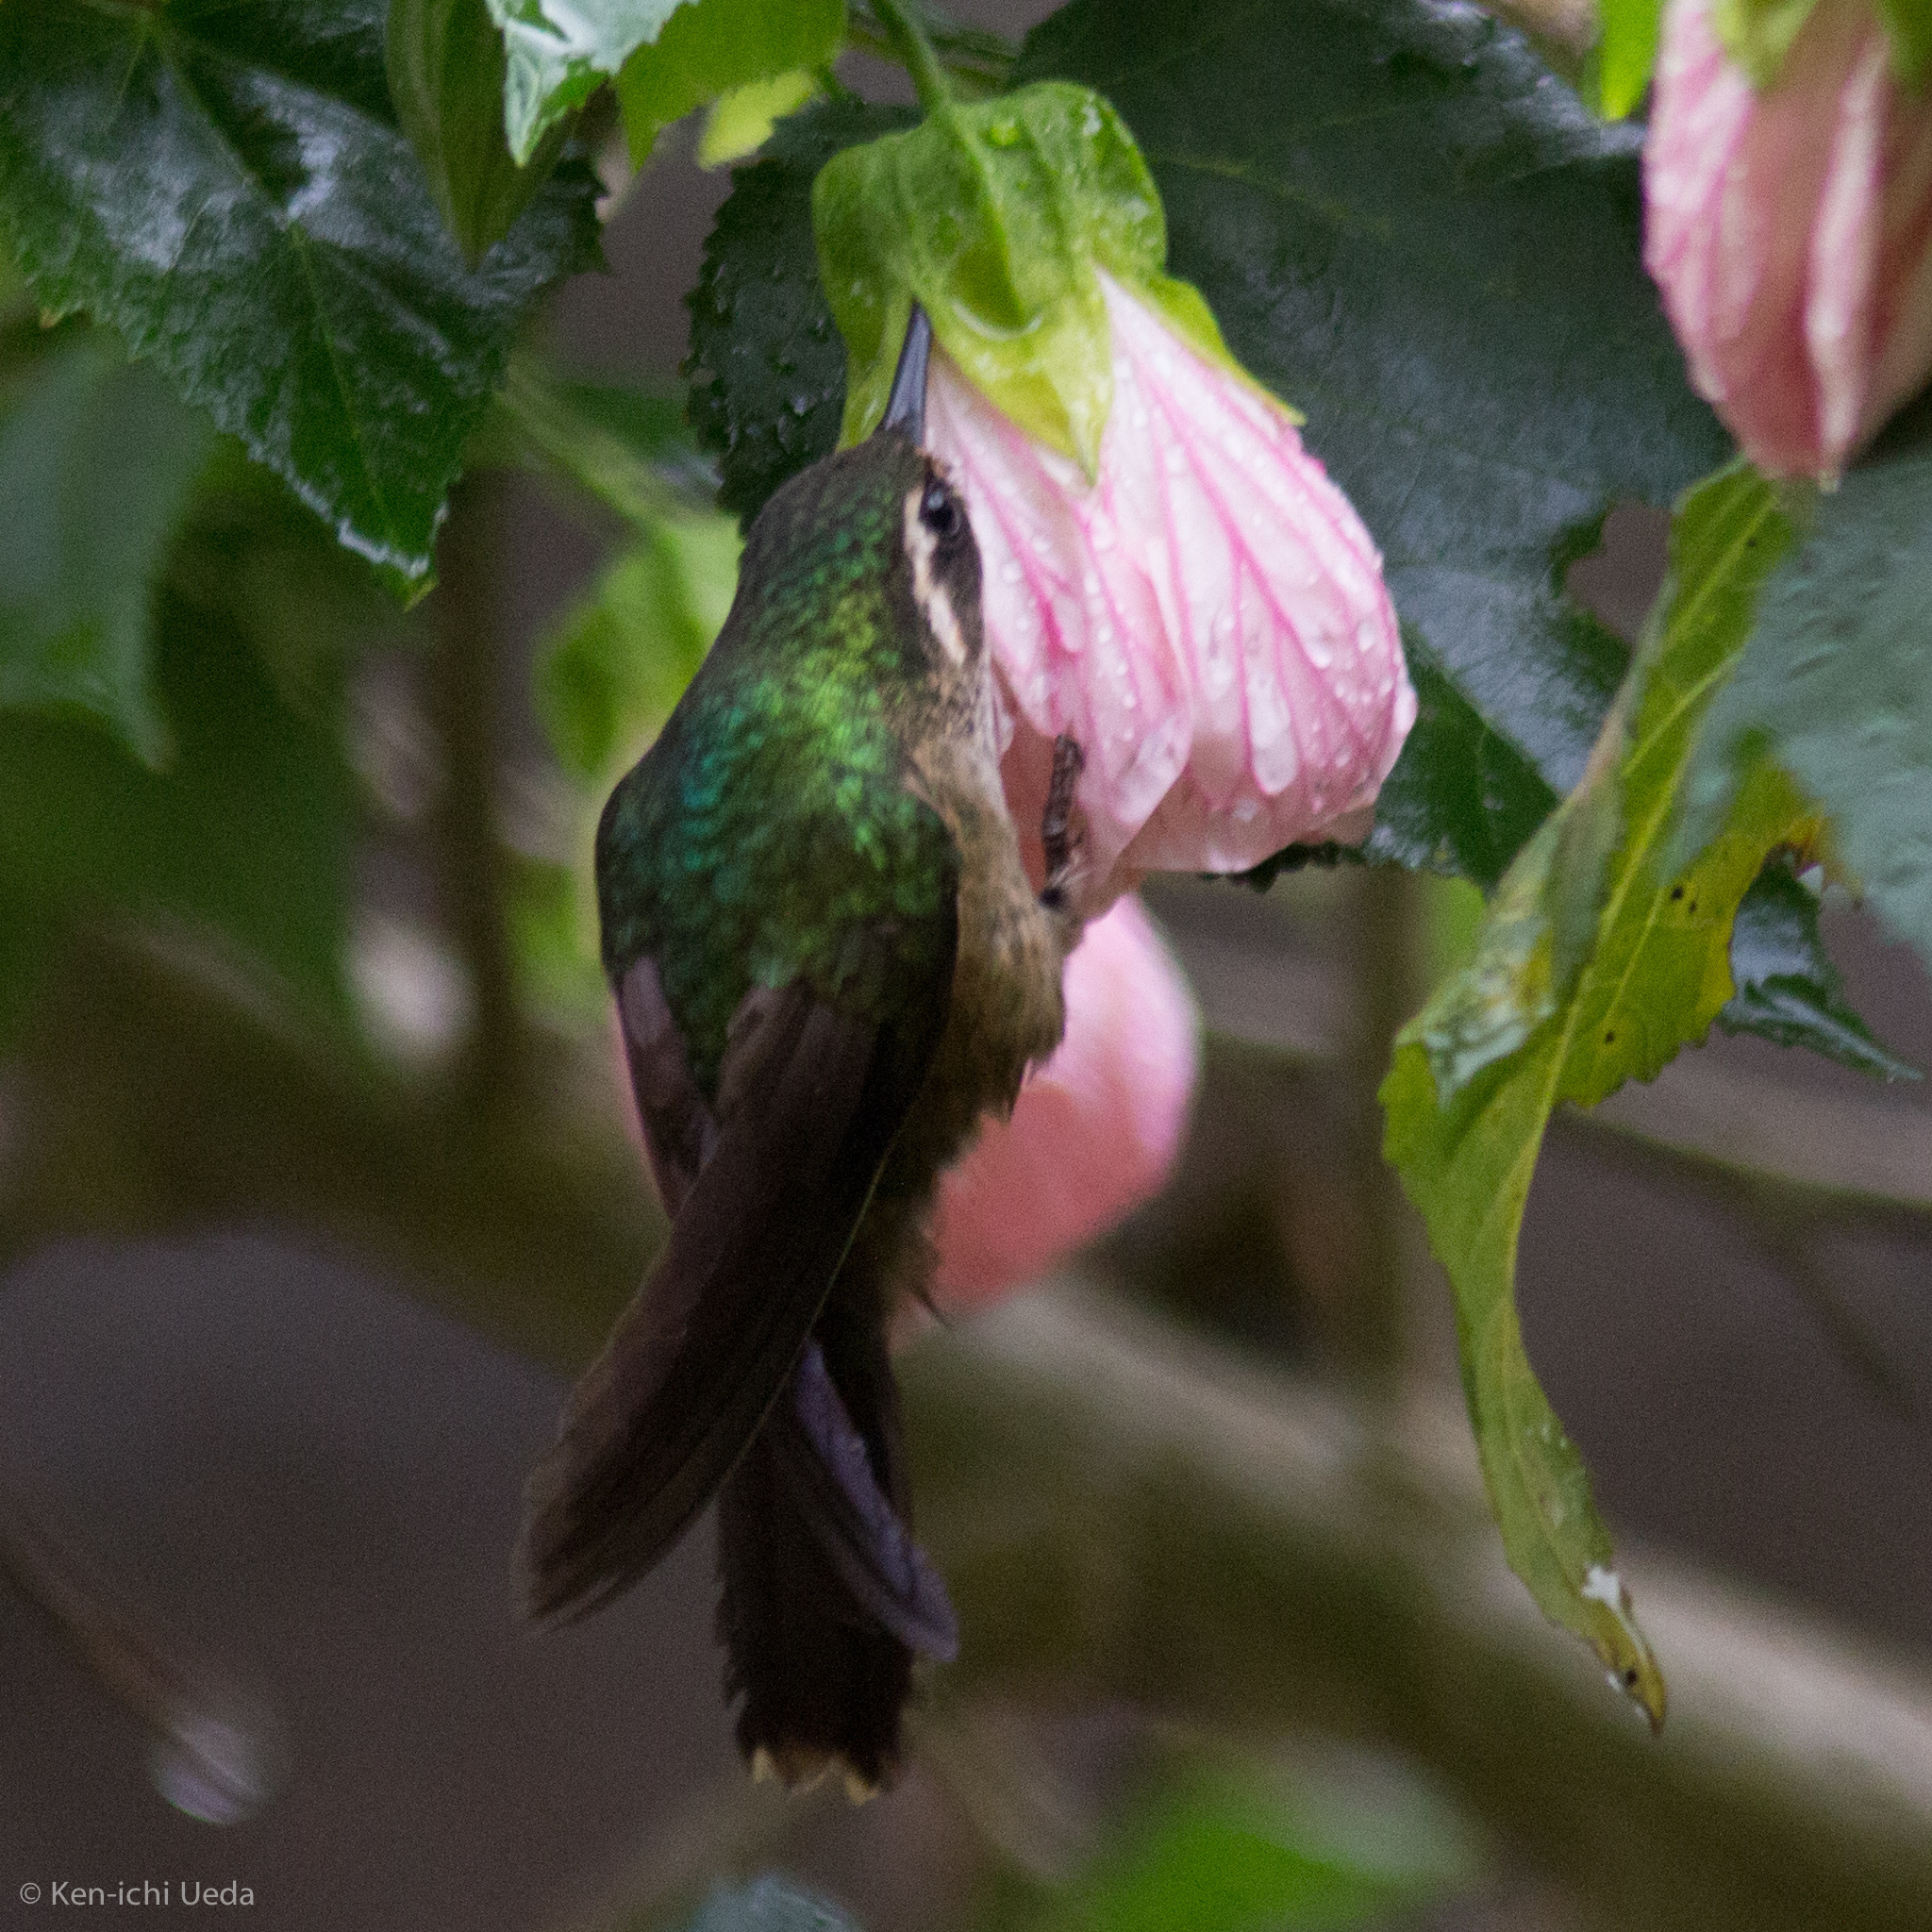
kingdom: Animalia
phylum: Chordata
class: Aves
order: Apodiformes
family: Trochilidae
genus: Adelomyia
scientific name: Adelomyia melanogenys
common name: Speckled hummingbird
